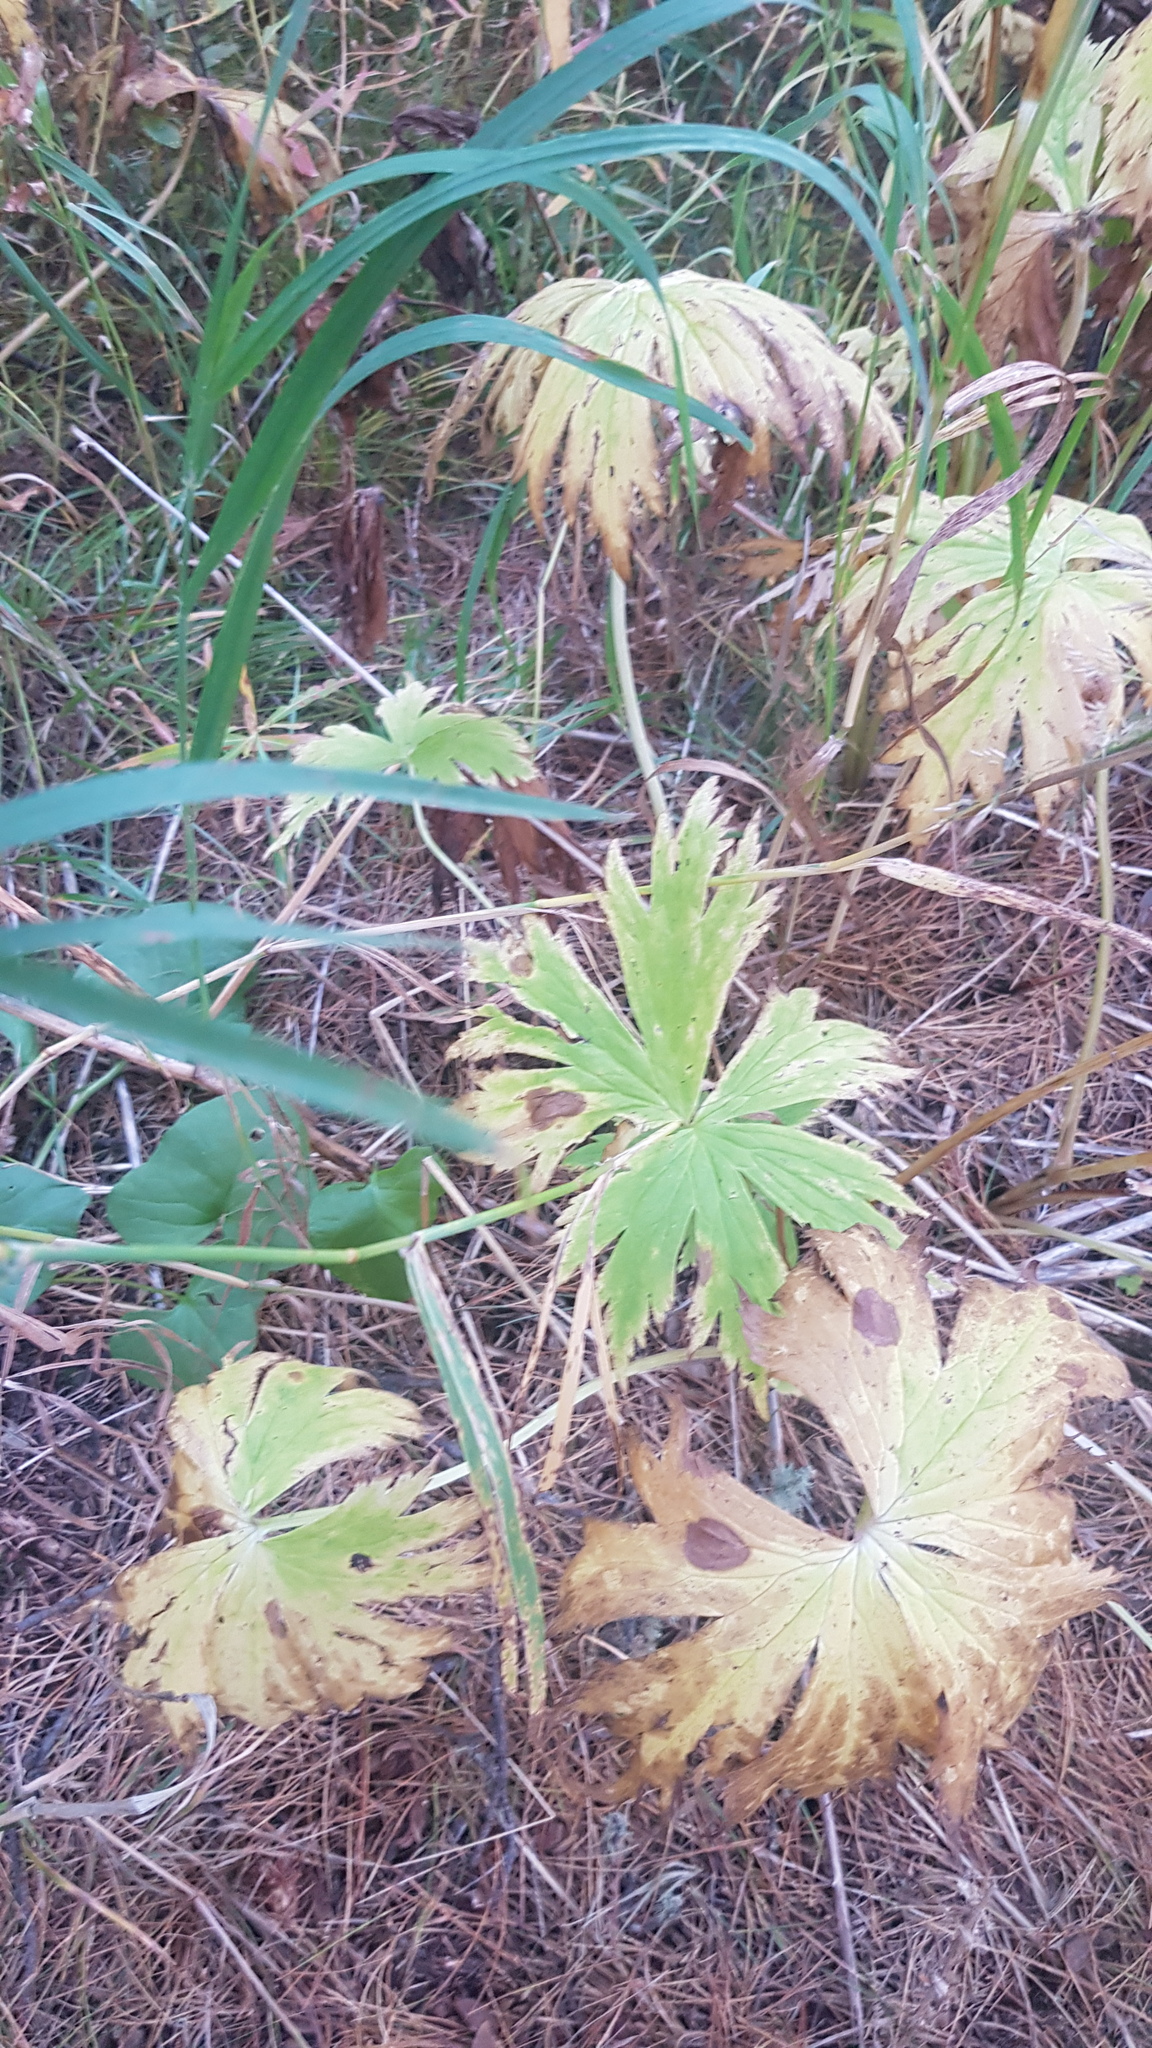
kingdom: Plantae
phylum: Tracheophyta
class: Magnoliopsida
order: Ranunculales
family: Ranunculaceae
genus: Aconitum
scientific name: Aconitum septentrionale
